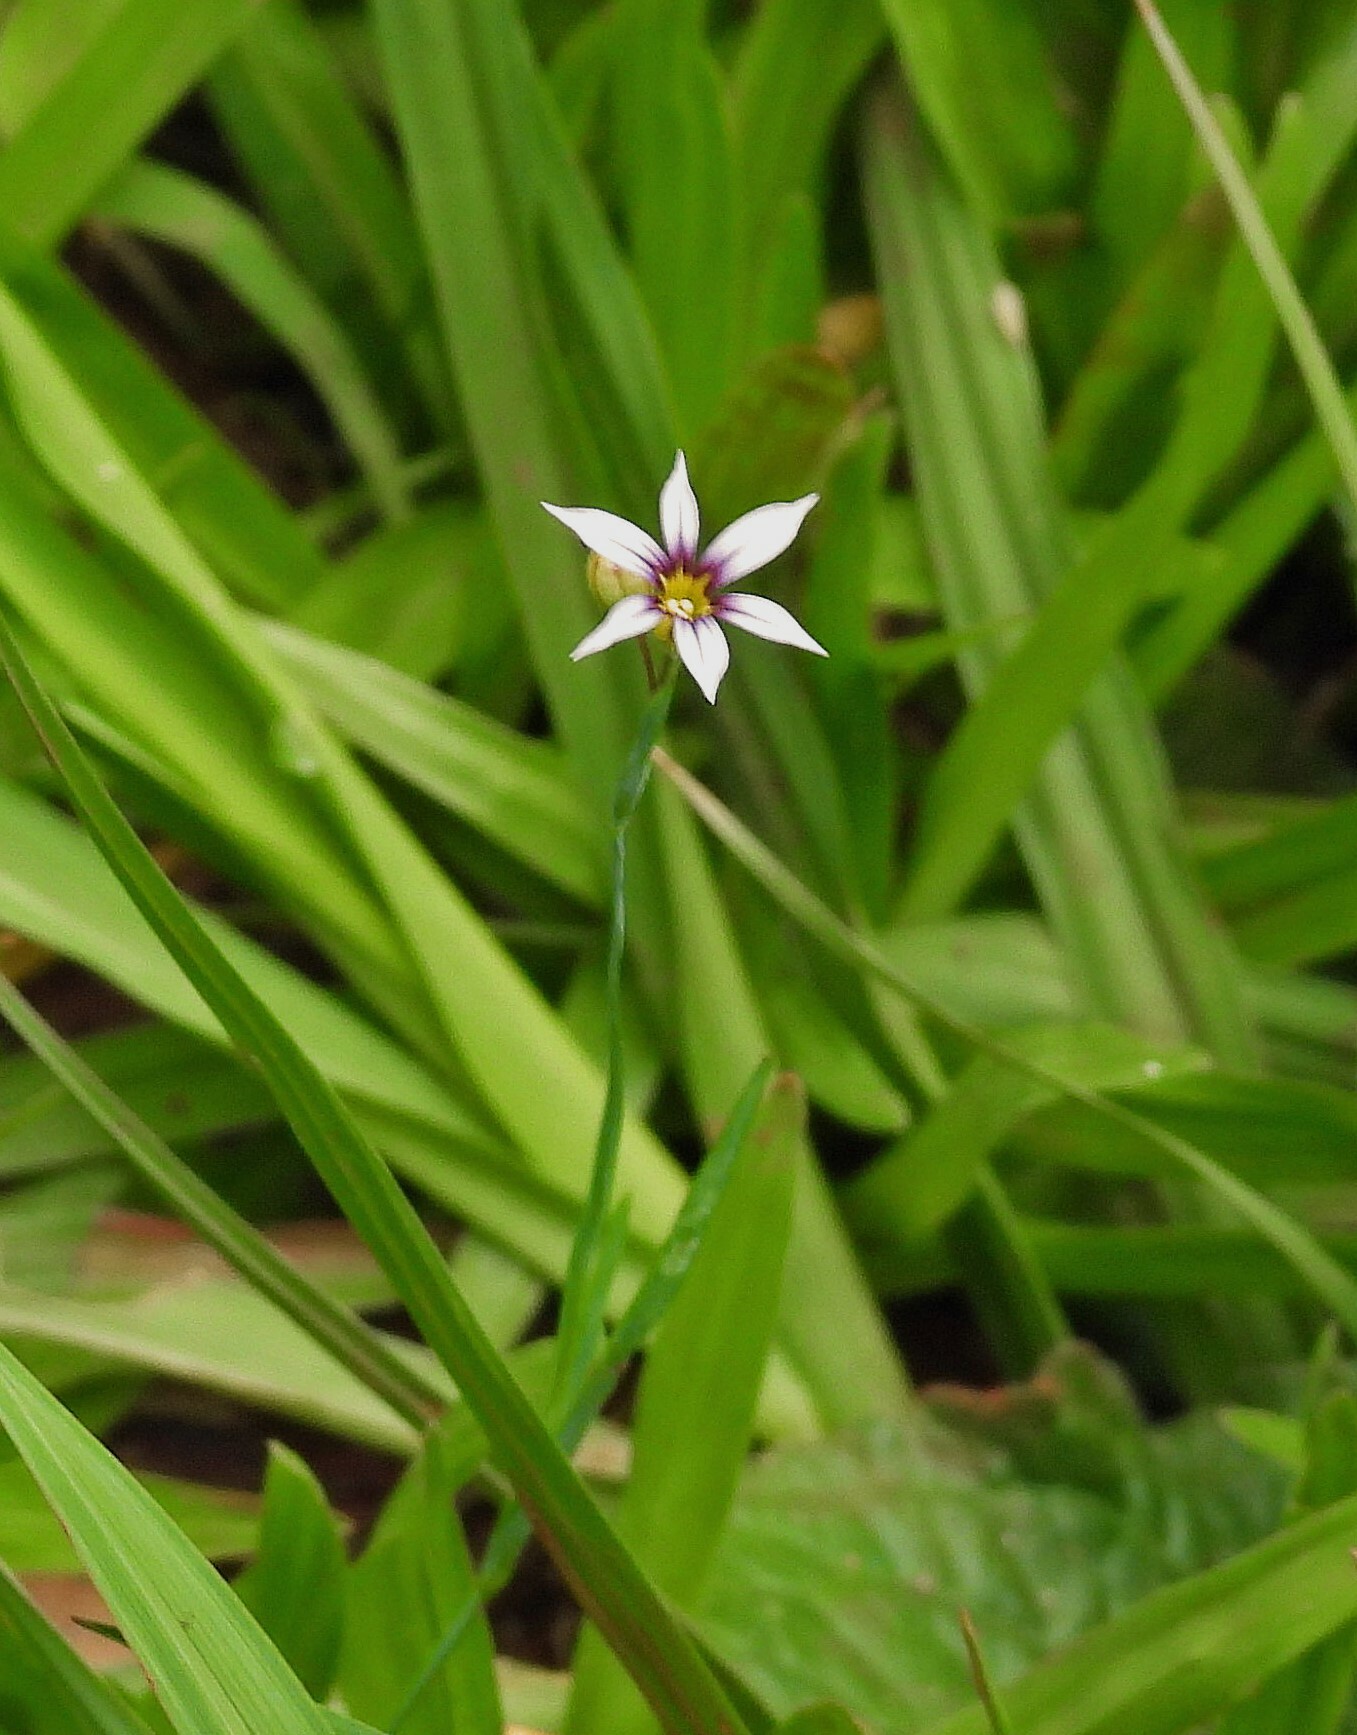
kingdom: Plantae
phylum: Tracheophyta
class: Liliopsida
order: Asparagales
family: Iridaceae
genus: Sisyrinchium
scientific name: Sisyrinchium micranthum
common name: Bermuda pigroot
